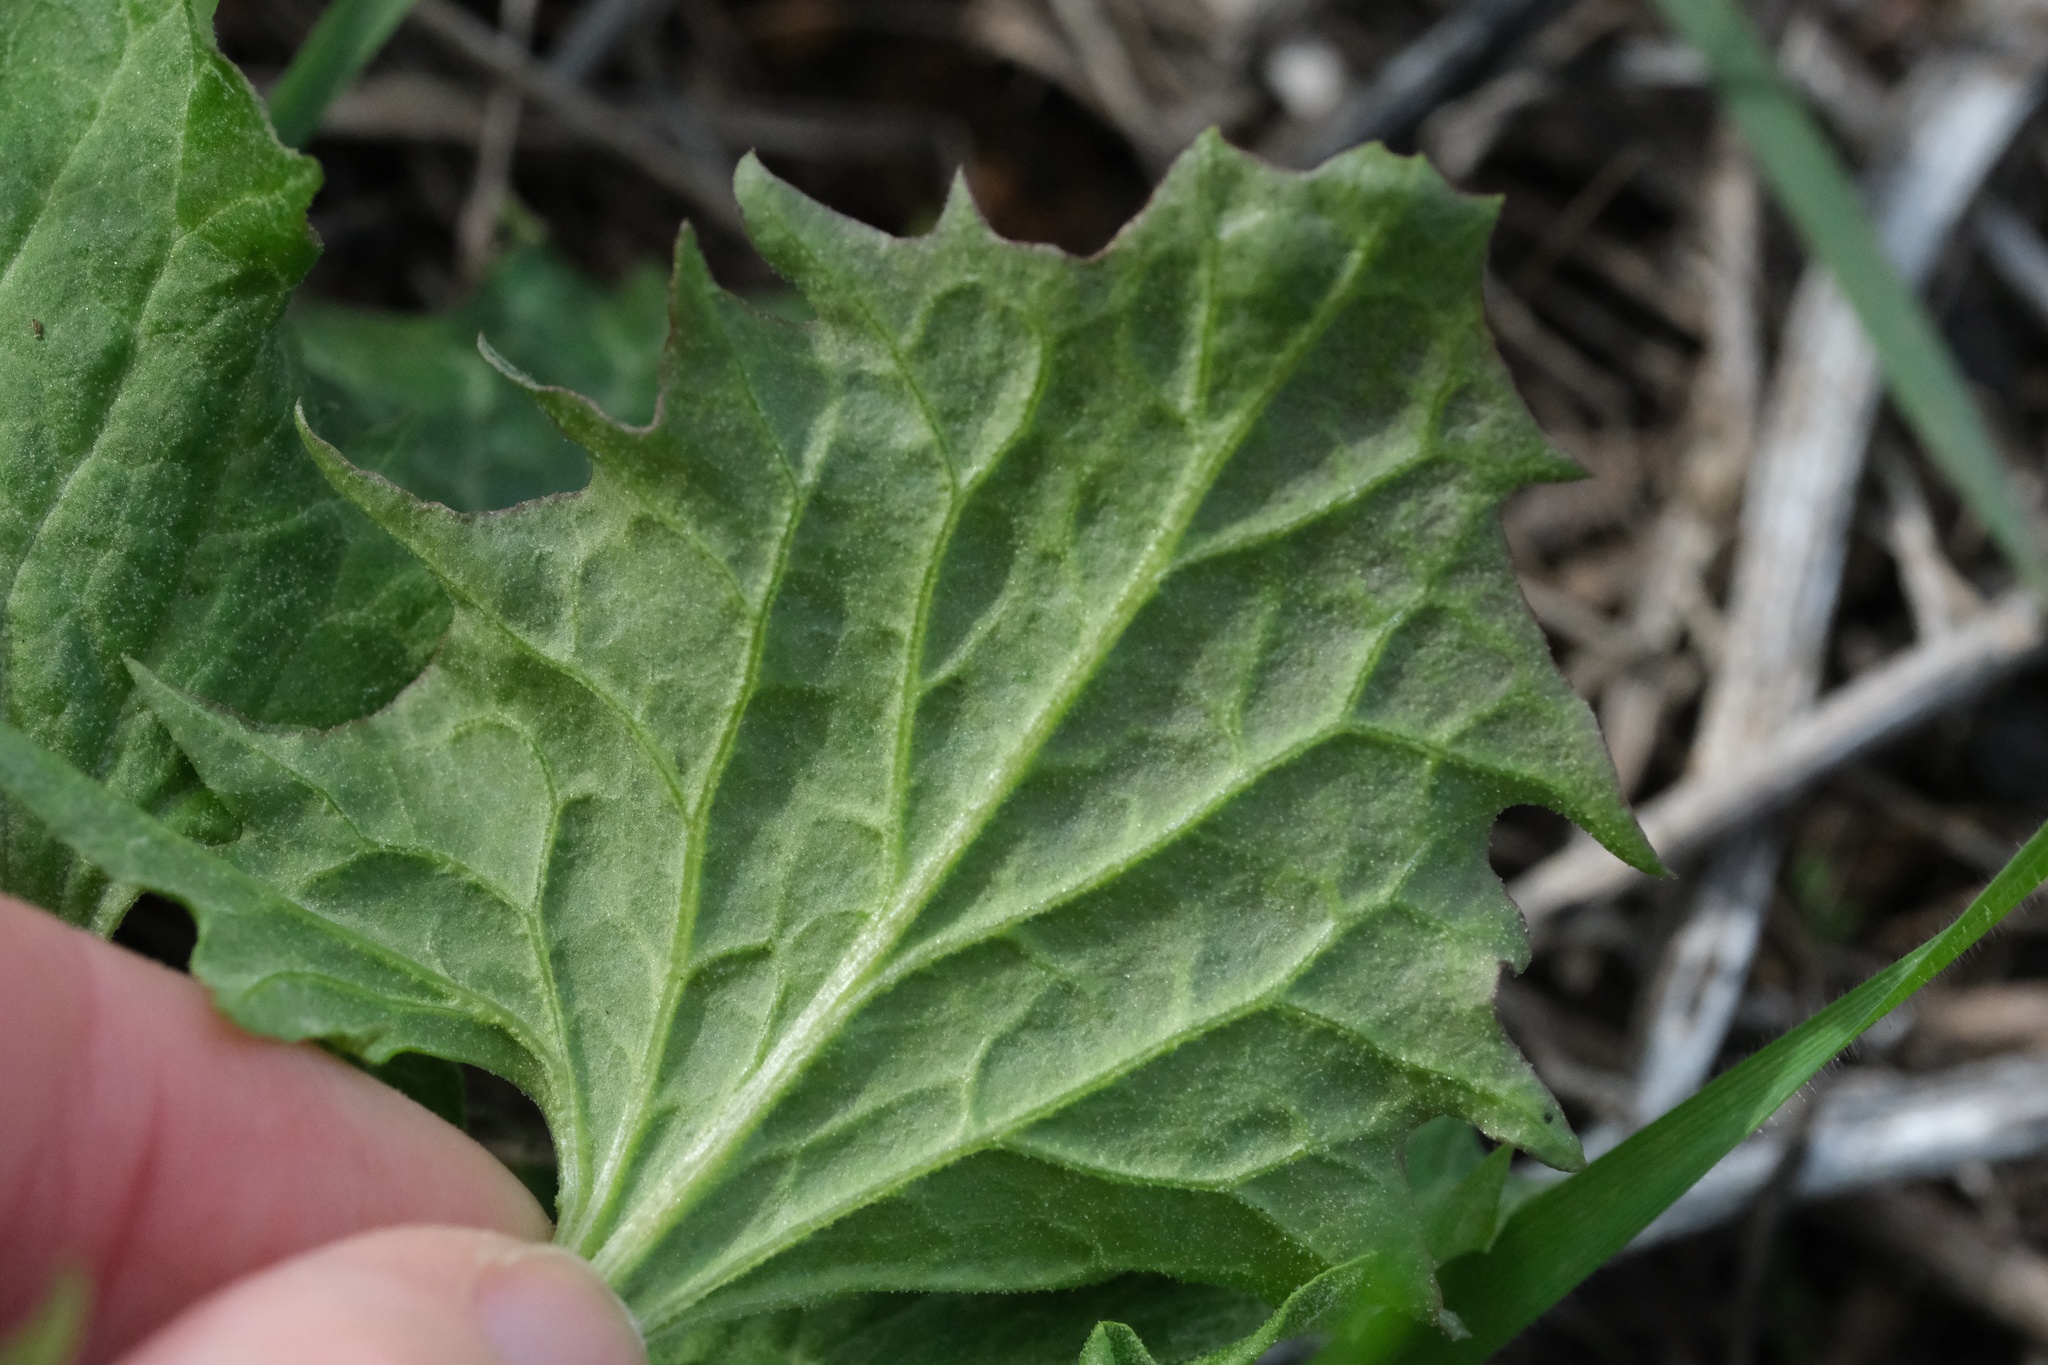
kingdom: Plantae
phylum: Tracheophyta
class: Magnoliopsida
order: Caryophyllales
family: Amaranthaceae
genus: Blitum
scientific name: Blitum californicum
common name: California goosefoot
